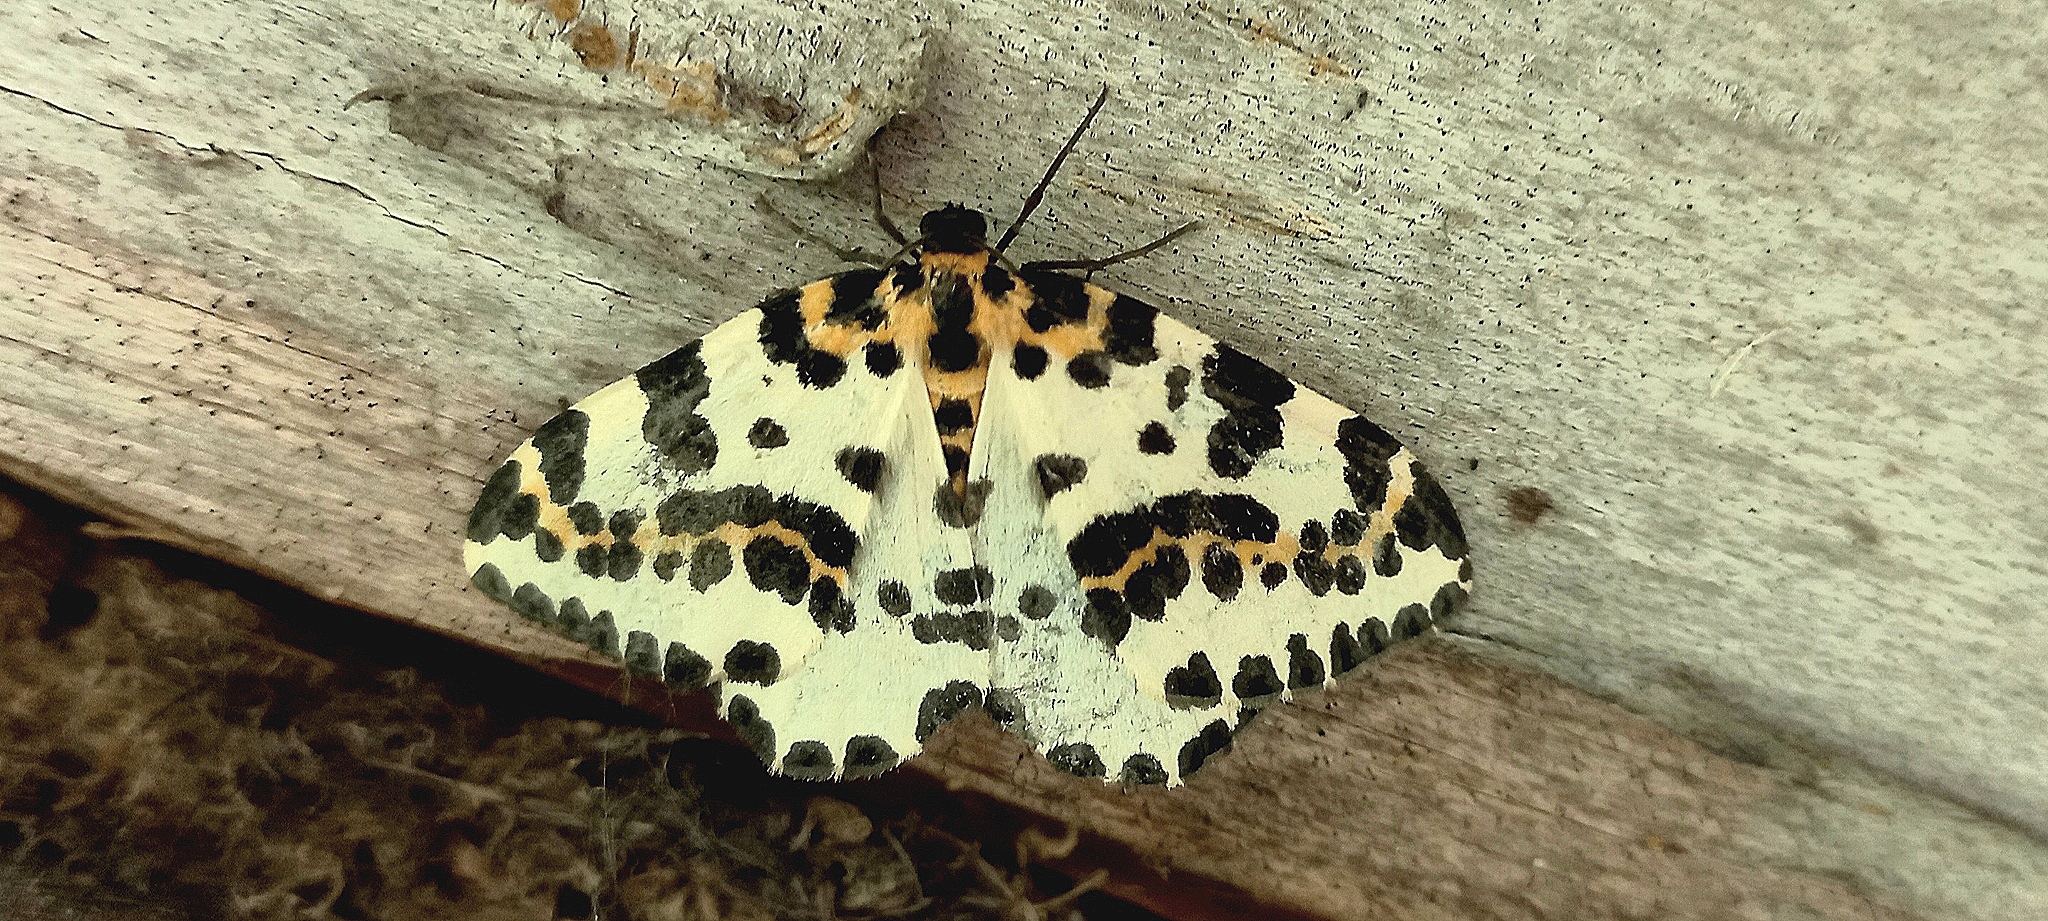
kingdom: Animalia
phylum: Arthropoda
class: Insecta
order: Lepidoptera
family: Geometridae
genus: Abraxas
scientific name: Abraxas grossulariata
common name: Magpie
